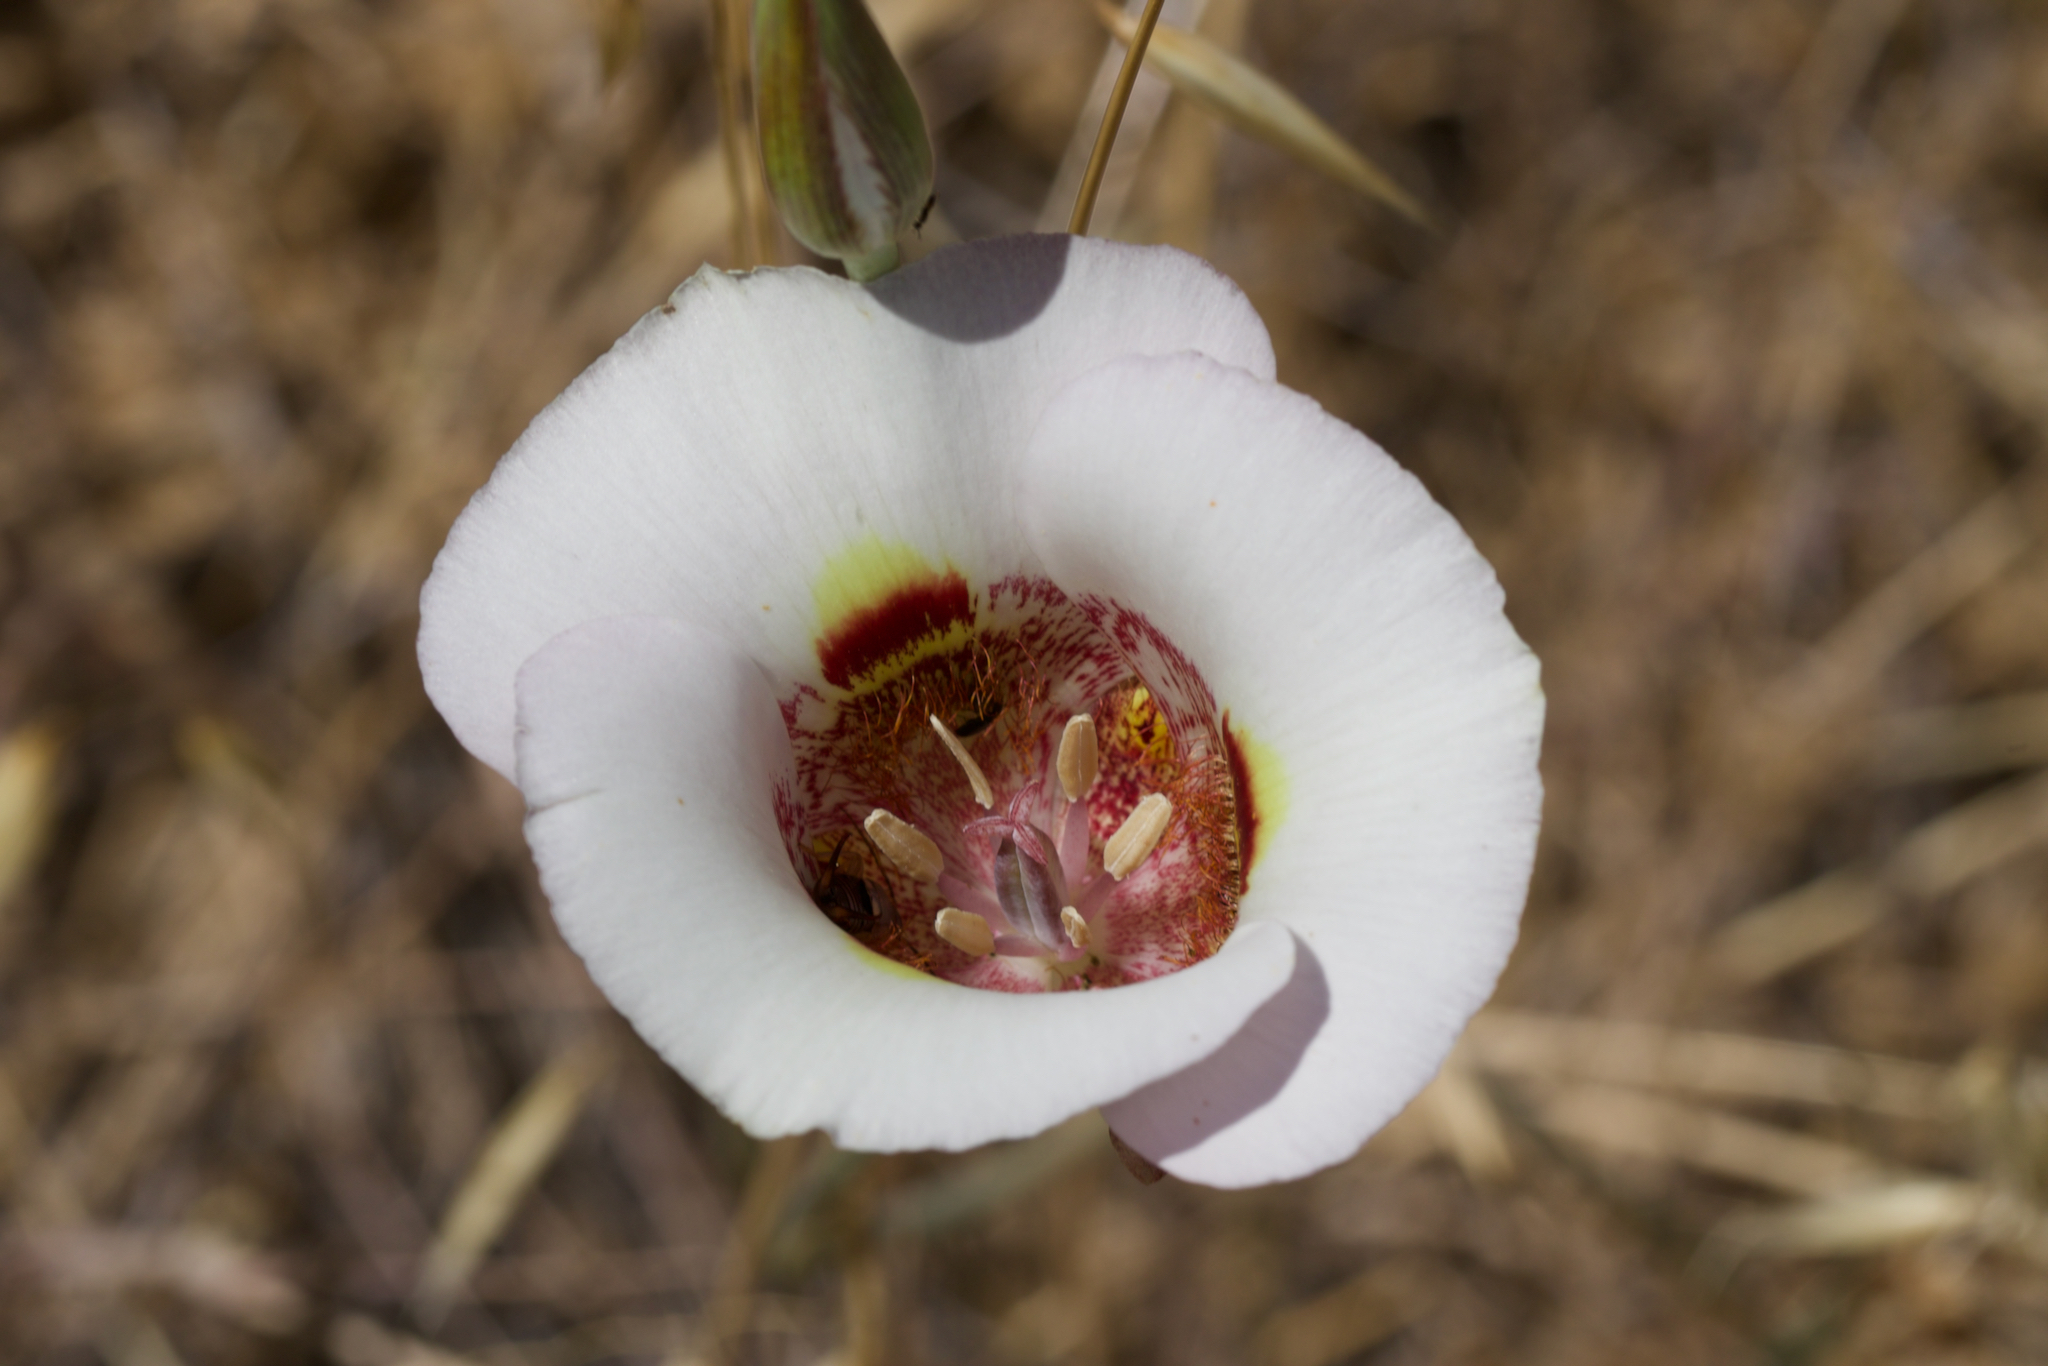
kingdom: Plantae
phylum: Tracheophyta
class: Liliopsida
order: Liliales
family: Liliaceae
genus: Calochortus
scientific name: Calochortus argillosus
